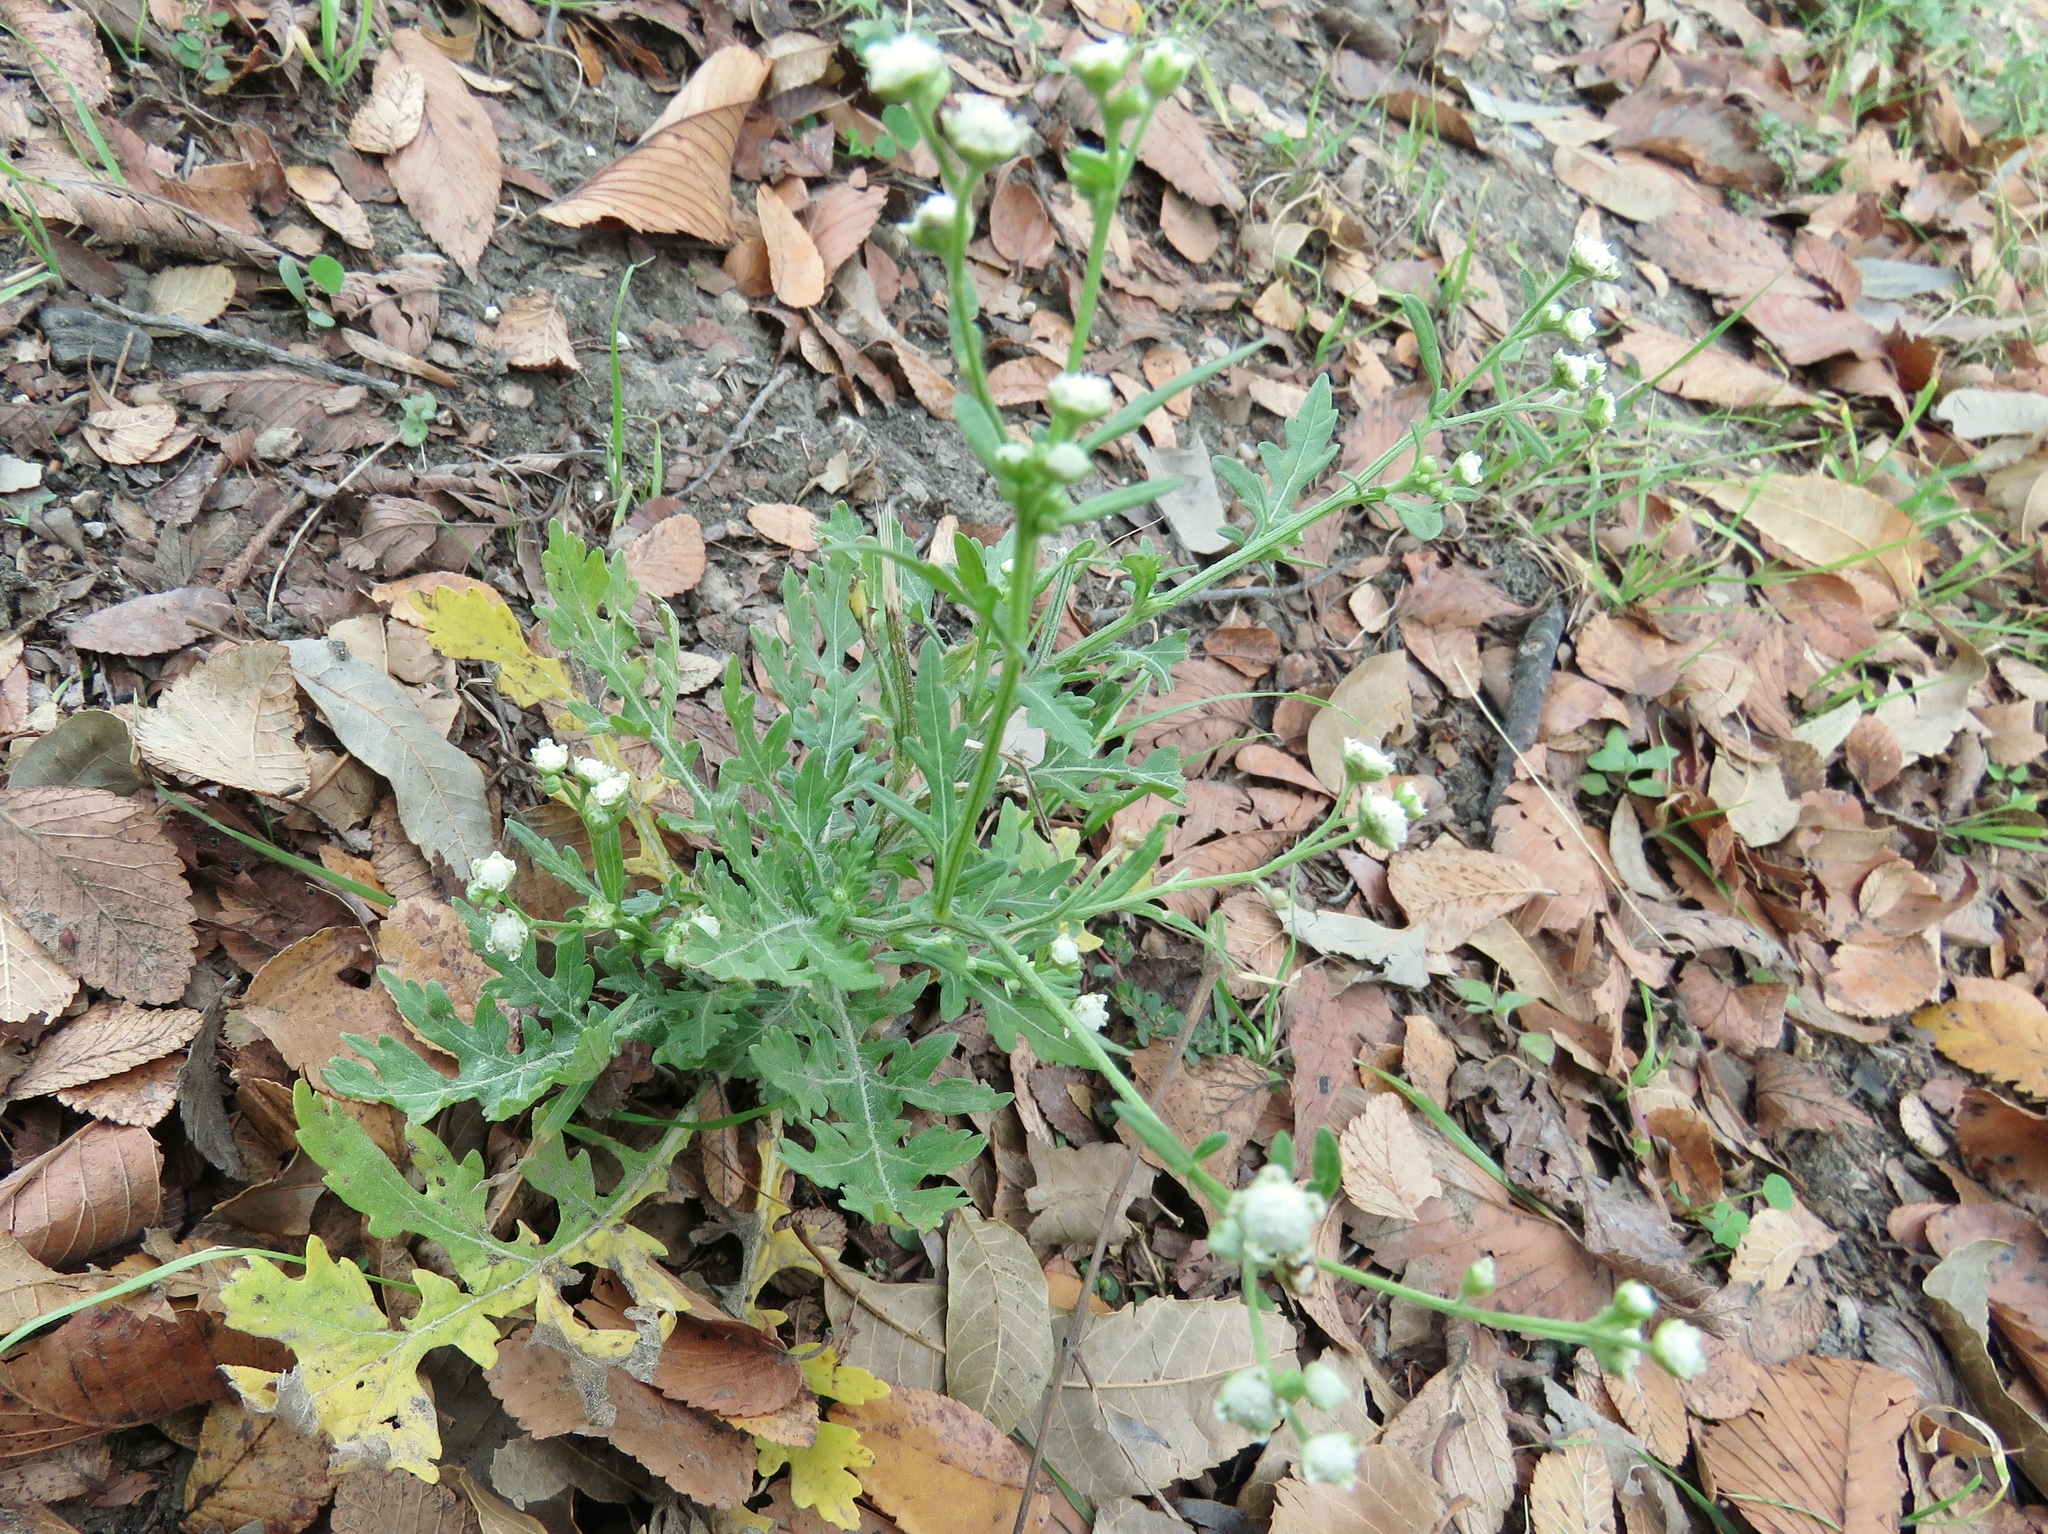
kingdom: Plantae
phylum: Tracheophyta
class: Magnoliopsida
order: Asterales
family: Asteraceae
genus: Parthenium
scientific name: Parthenium hysterophorus
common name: Santa maria feverfew
